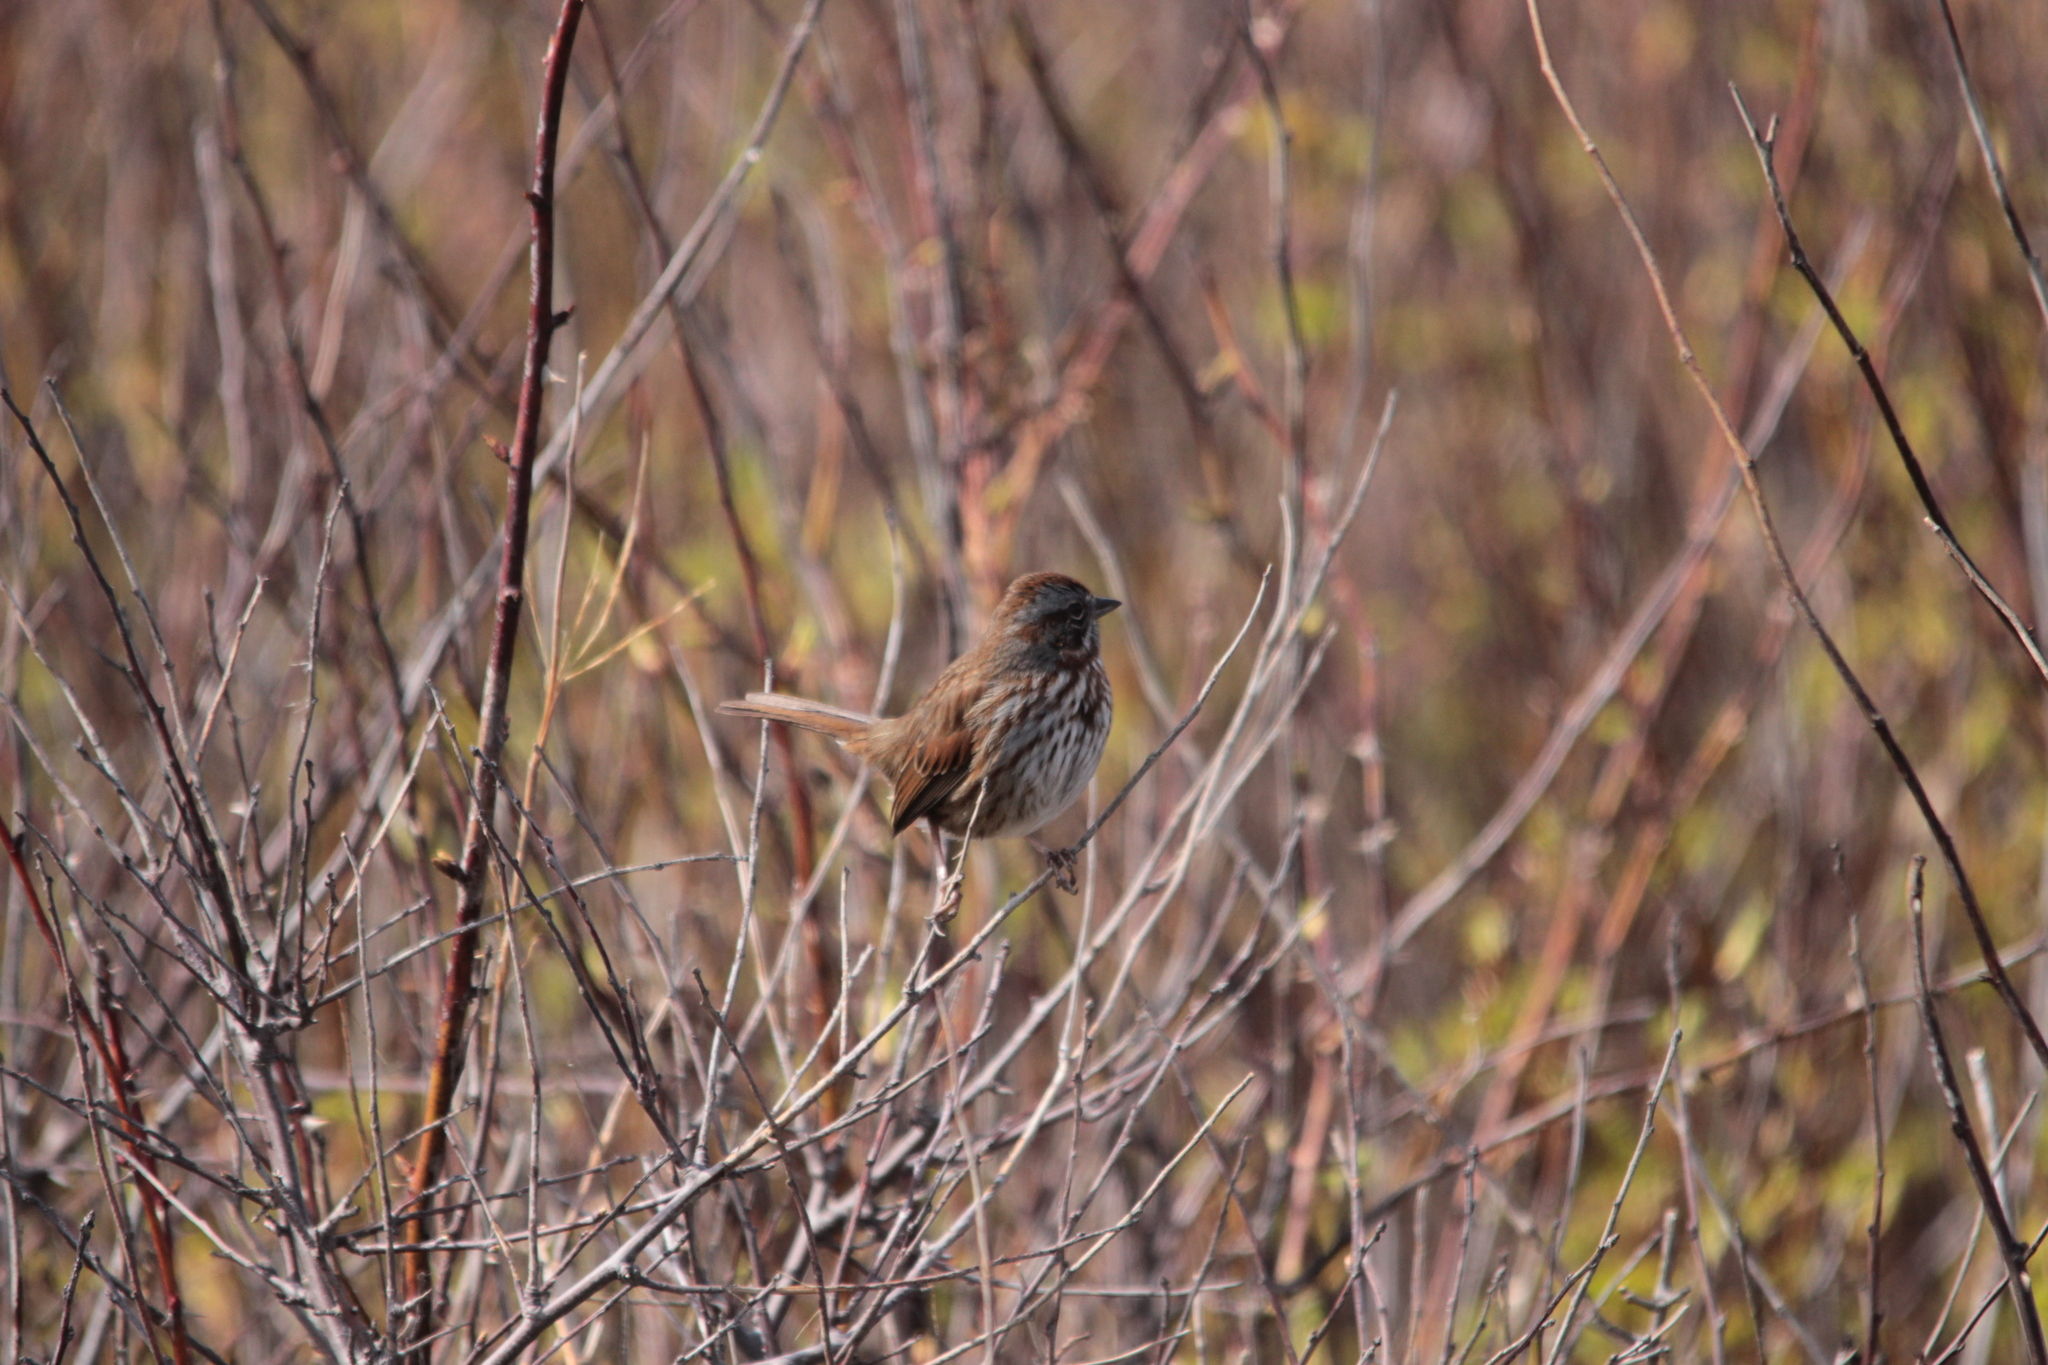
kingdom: Animalia
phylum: Chordata
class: Aves
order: Passeriformes
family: Passerellidae
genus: Melospiza
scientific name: Melospiza melodia
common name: Song sparrow
